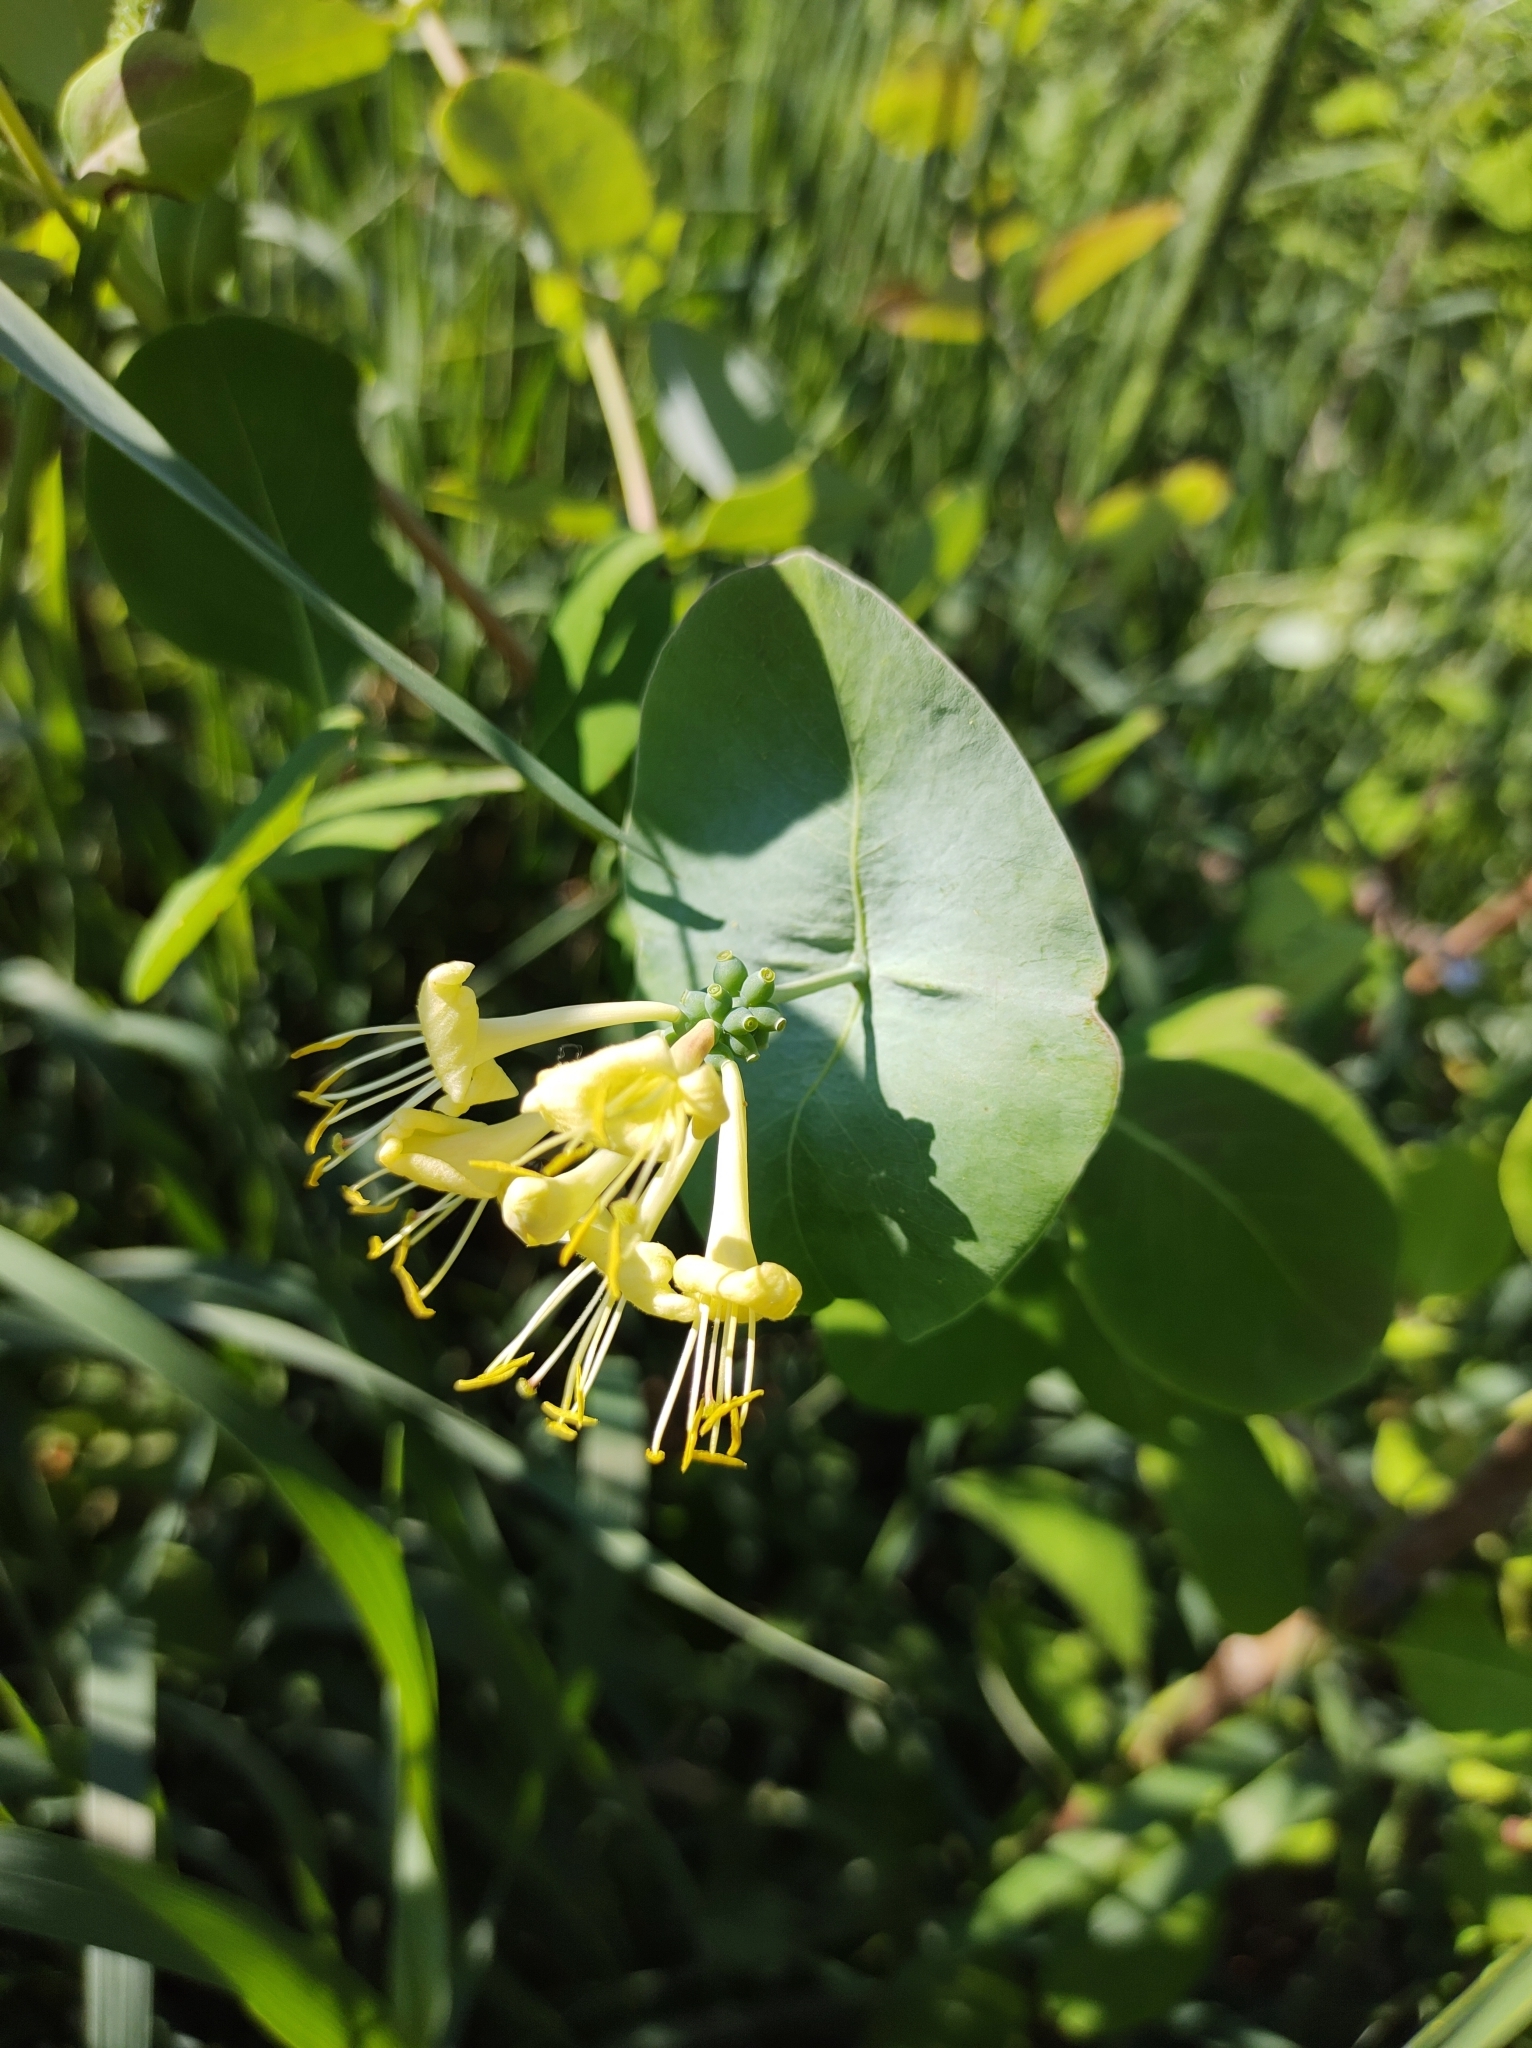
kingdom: Plantae
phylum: Tracheophyta
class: Magnoliopsida
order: Dipsacales
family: Caprifoliaceae
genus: Lonicera
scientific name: Lonicera reticulata
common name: Grape honeysuckle
